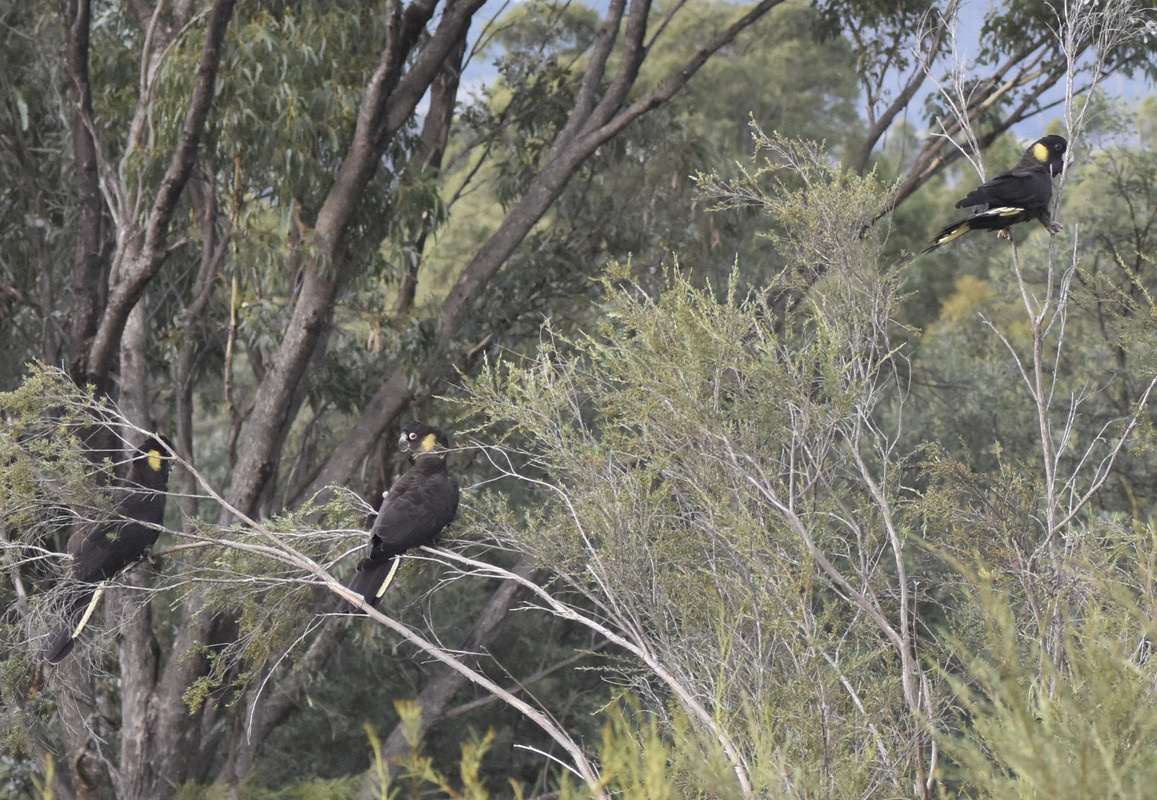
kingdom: Animalia
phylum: Chordata
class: Aves
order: Psittaciformes
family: Cacatuidae
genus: Zanda
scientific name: Zanda funerea
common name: Yellow-tailed black-cockatoo
